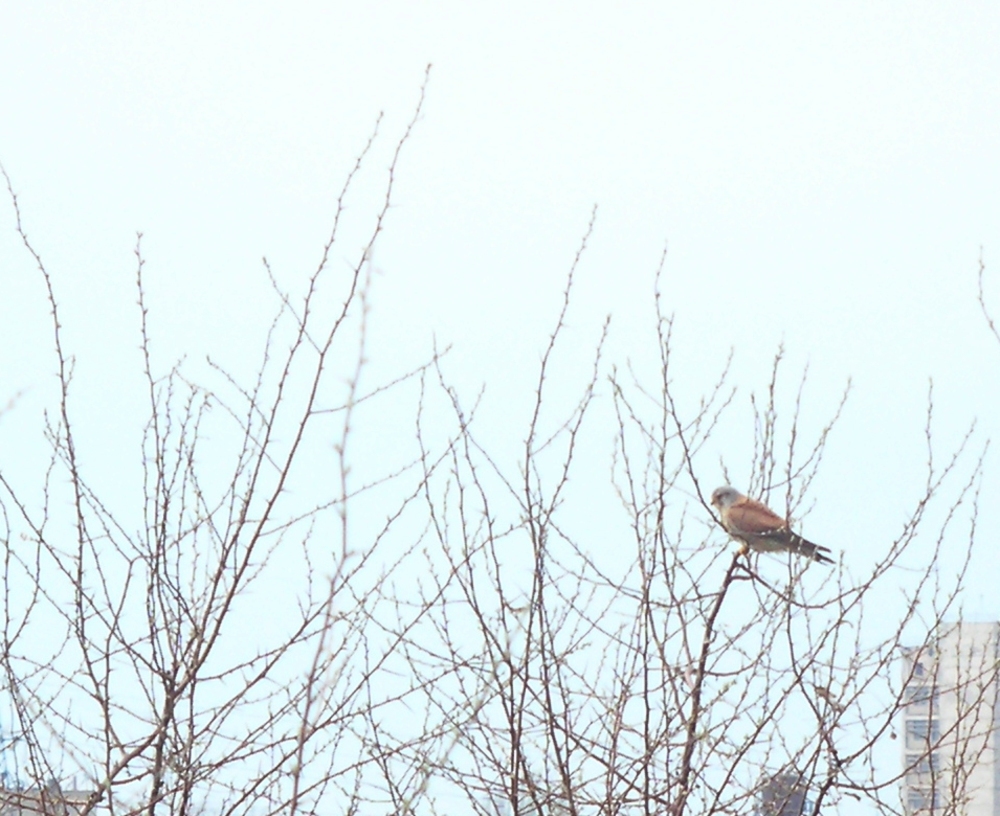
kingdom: Animalia
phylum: Chordata
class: Aves
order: Falconiformes
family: Falconidae
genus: Falco
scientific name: Falco tinnunculus
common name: Common kestrel
